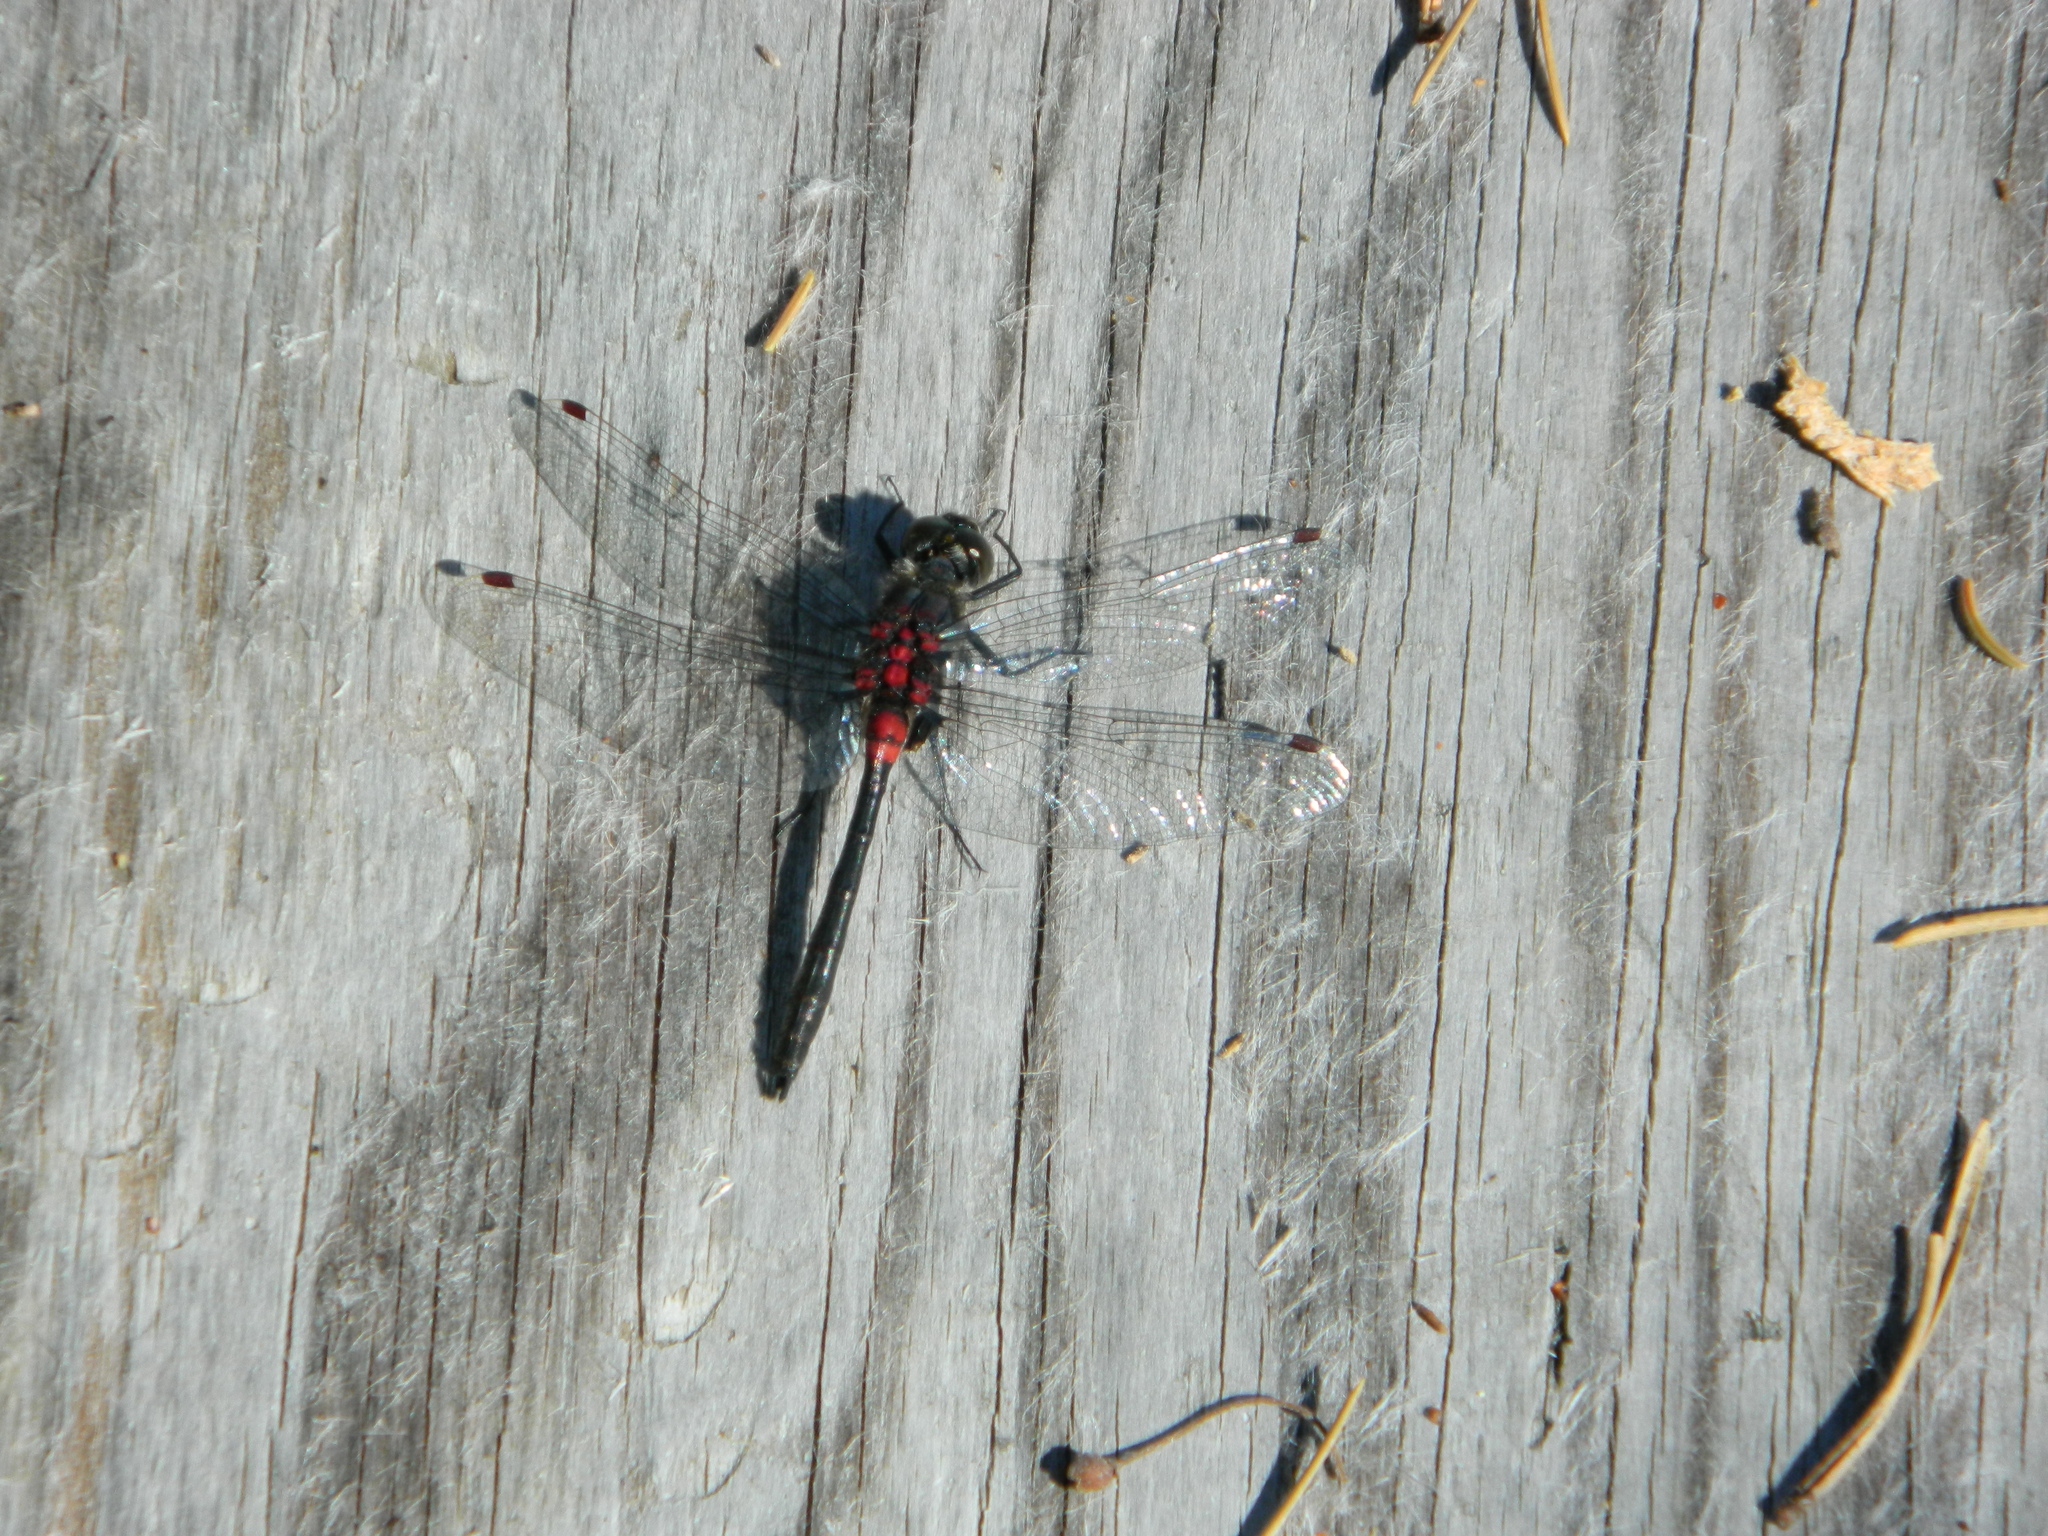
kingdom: Animalia
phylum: Arthropoda
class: Insecta
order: Odonata
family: Libellulidae
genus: Leucorrhinia
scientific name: Leucorrhinia glacialis
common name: Crimson-ringed whiteface
